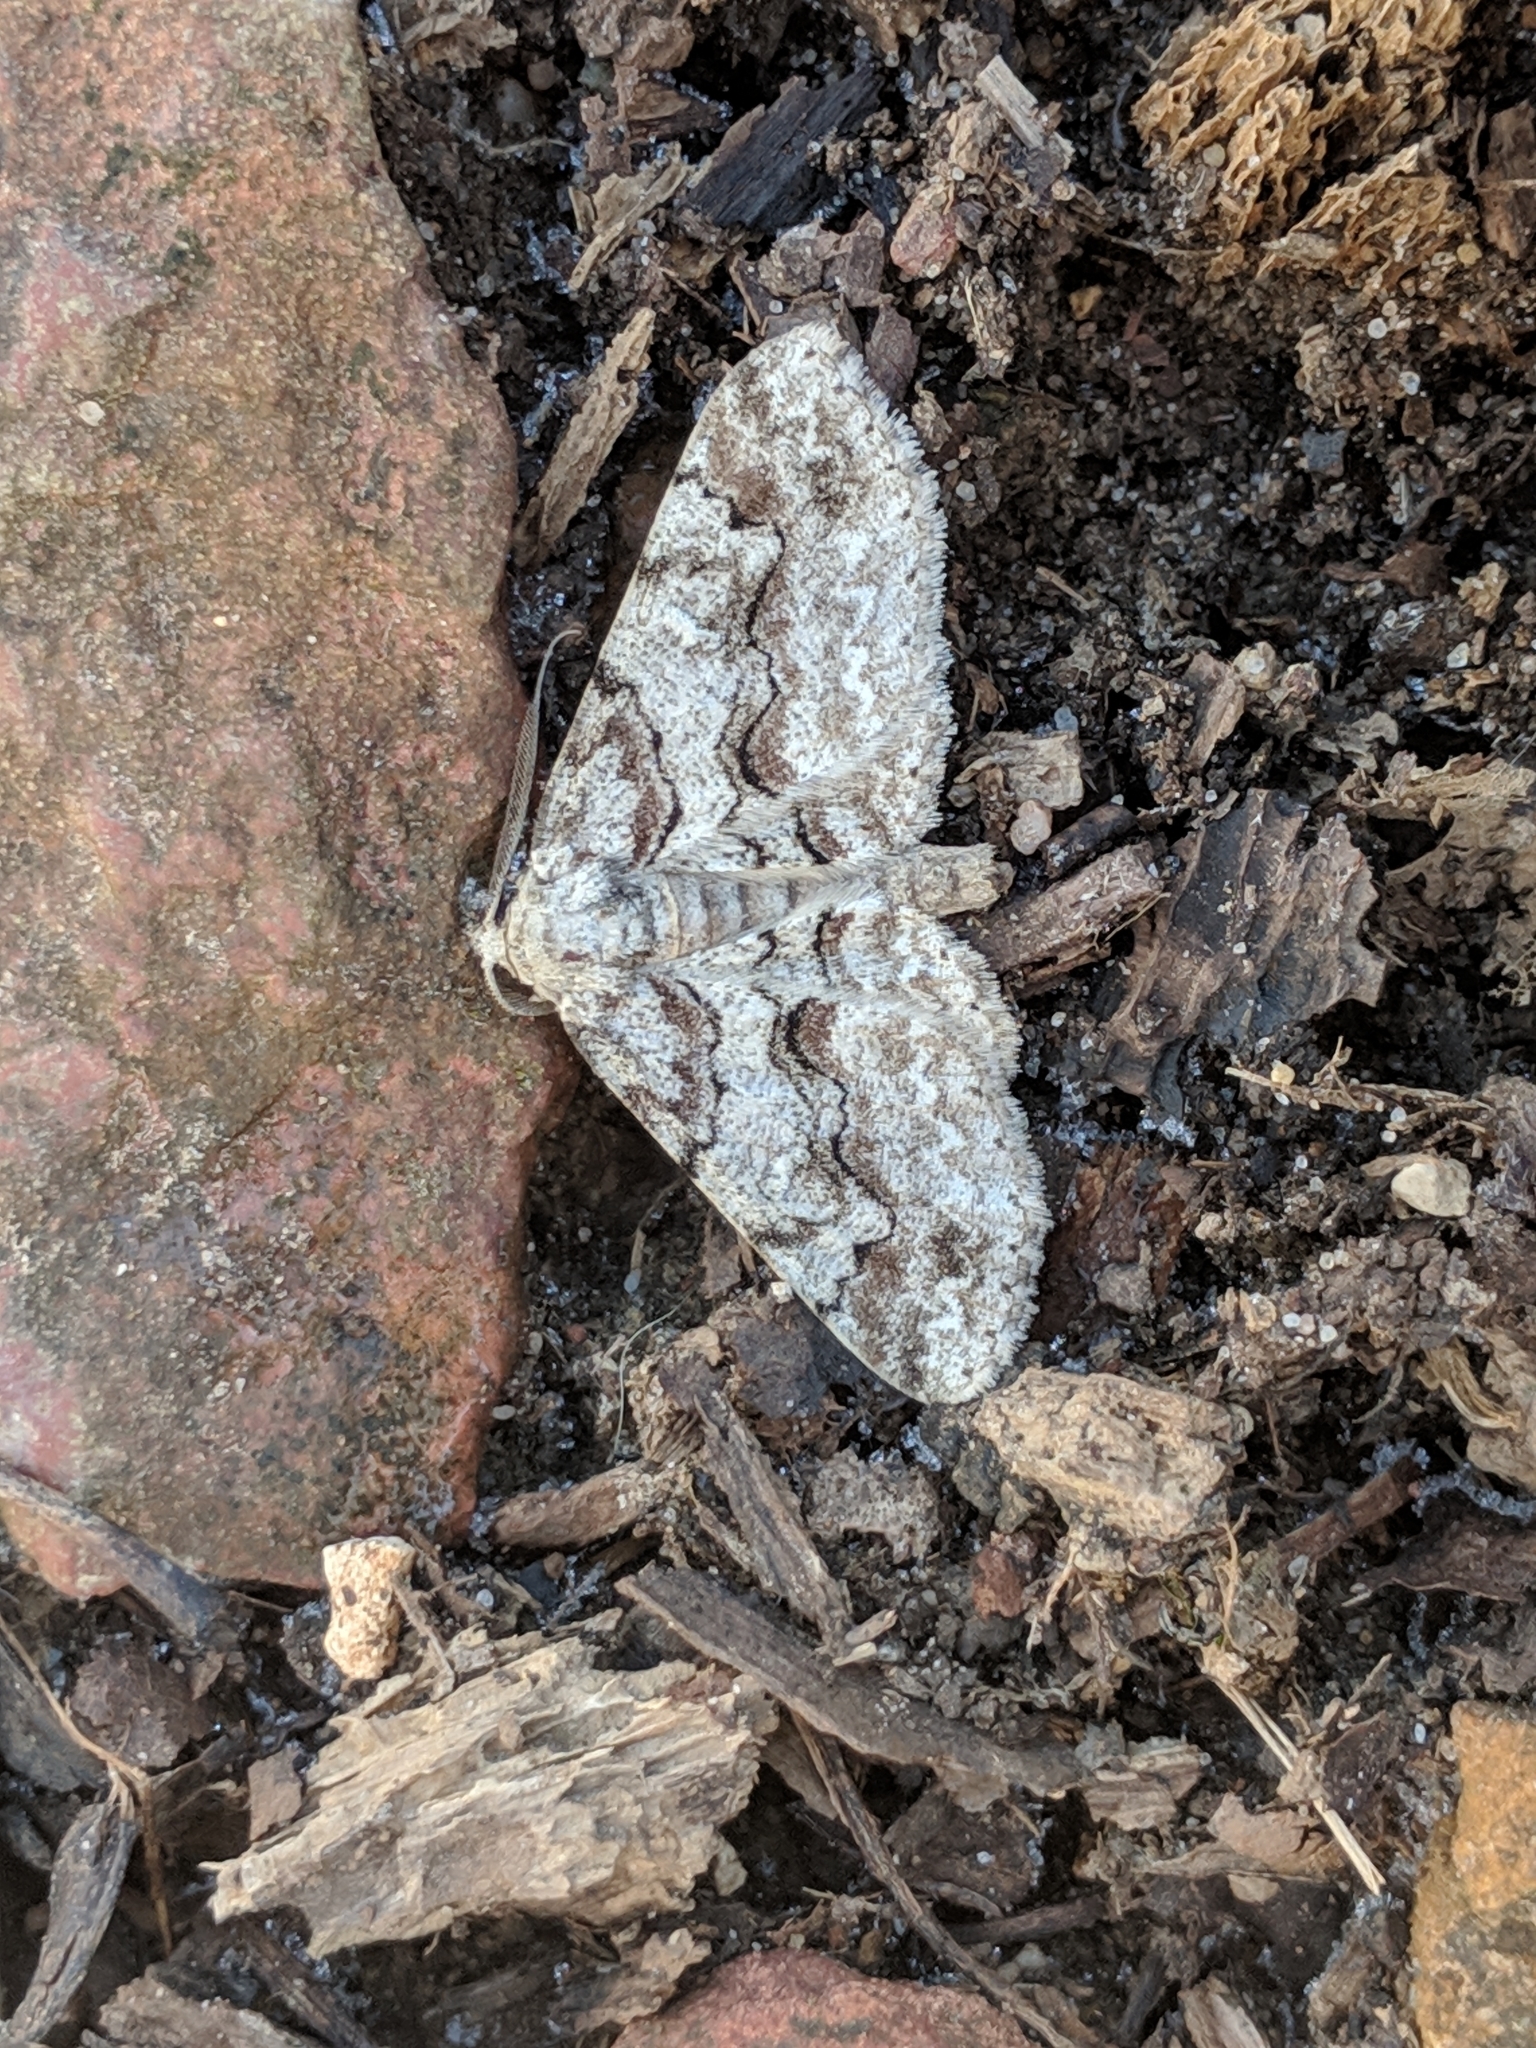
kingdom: Animalia
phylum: Arthropoda
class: Insecta
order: Lepidoptera
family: Geometridae
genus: Iridopsis
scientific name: Iridopsis defectaria
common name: Brown-shaded gray
